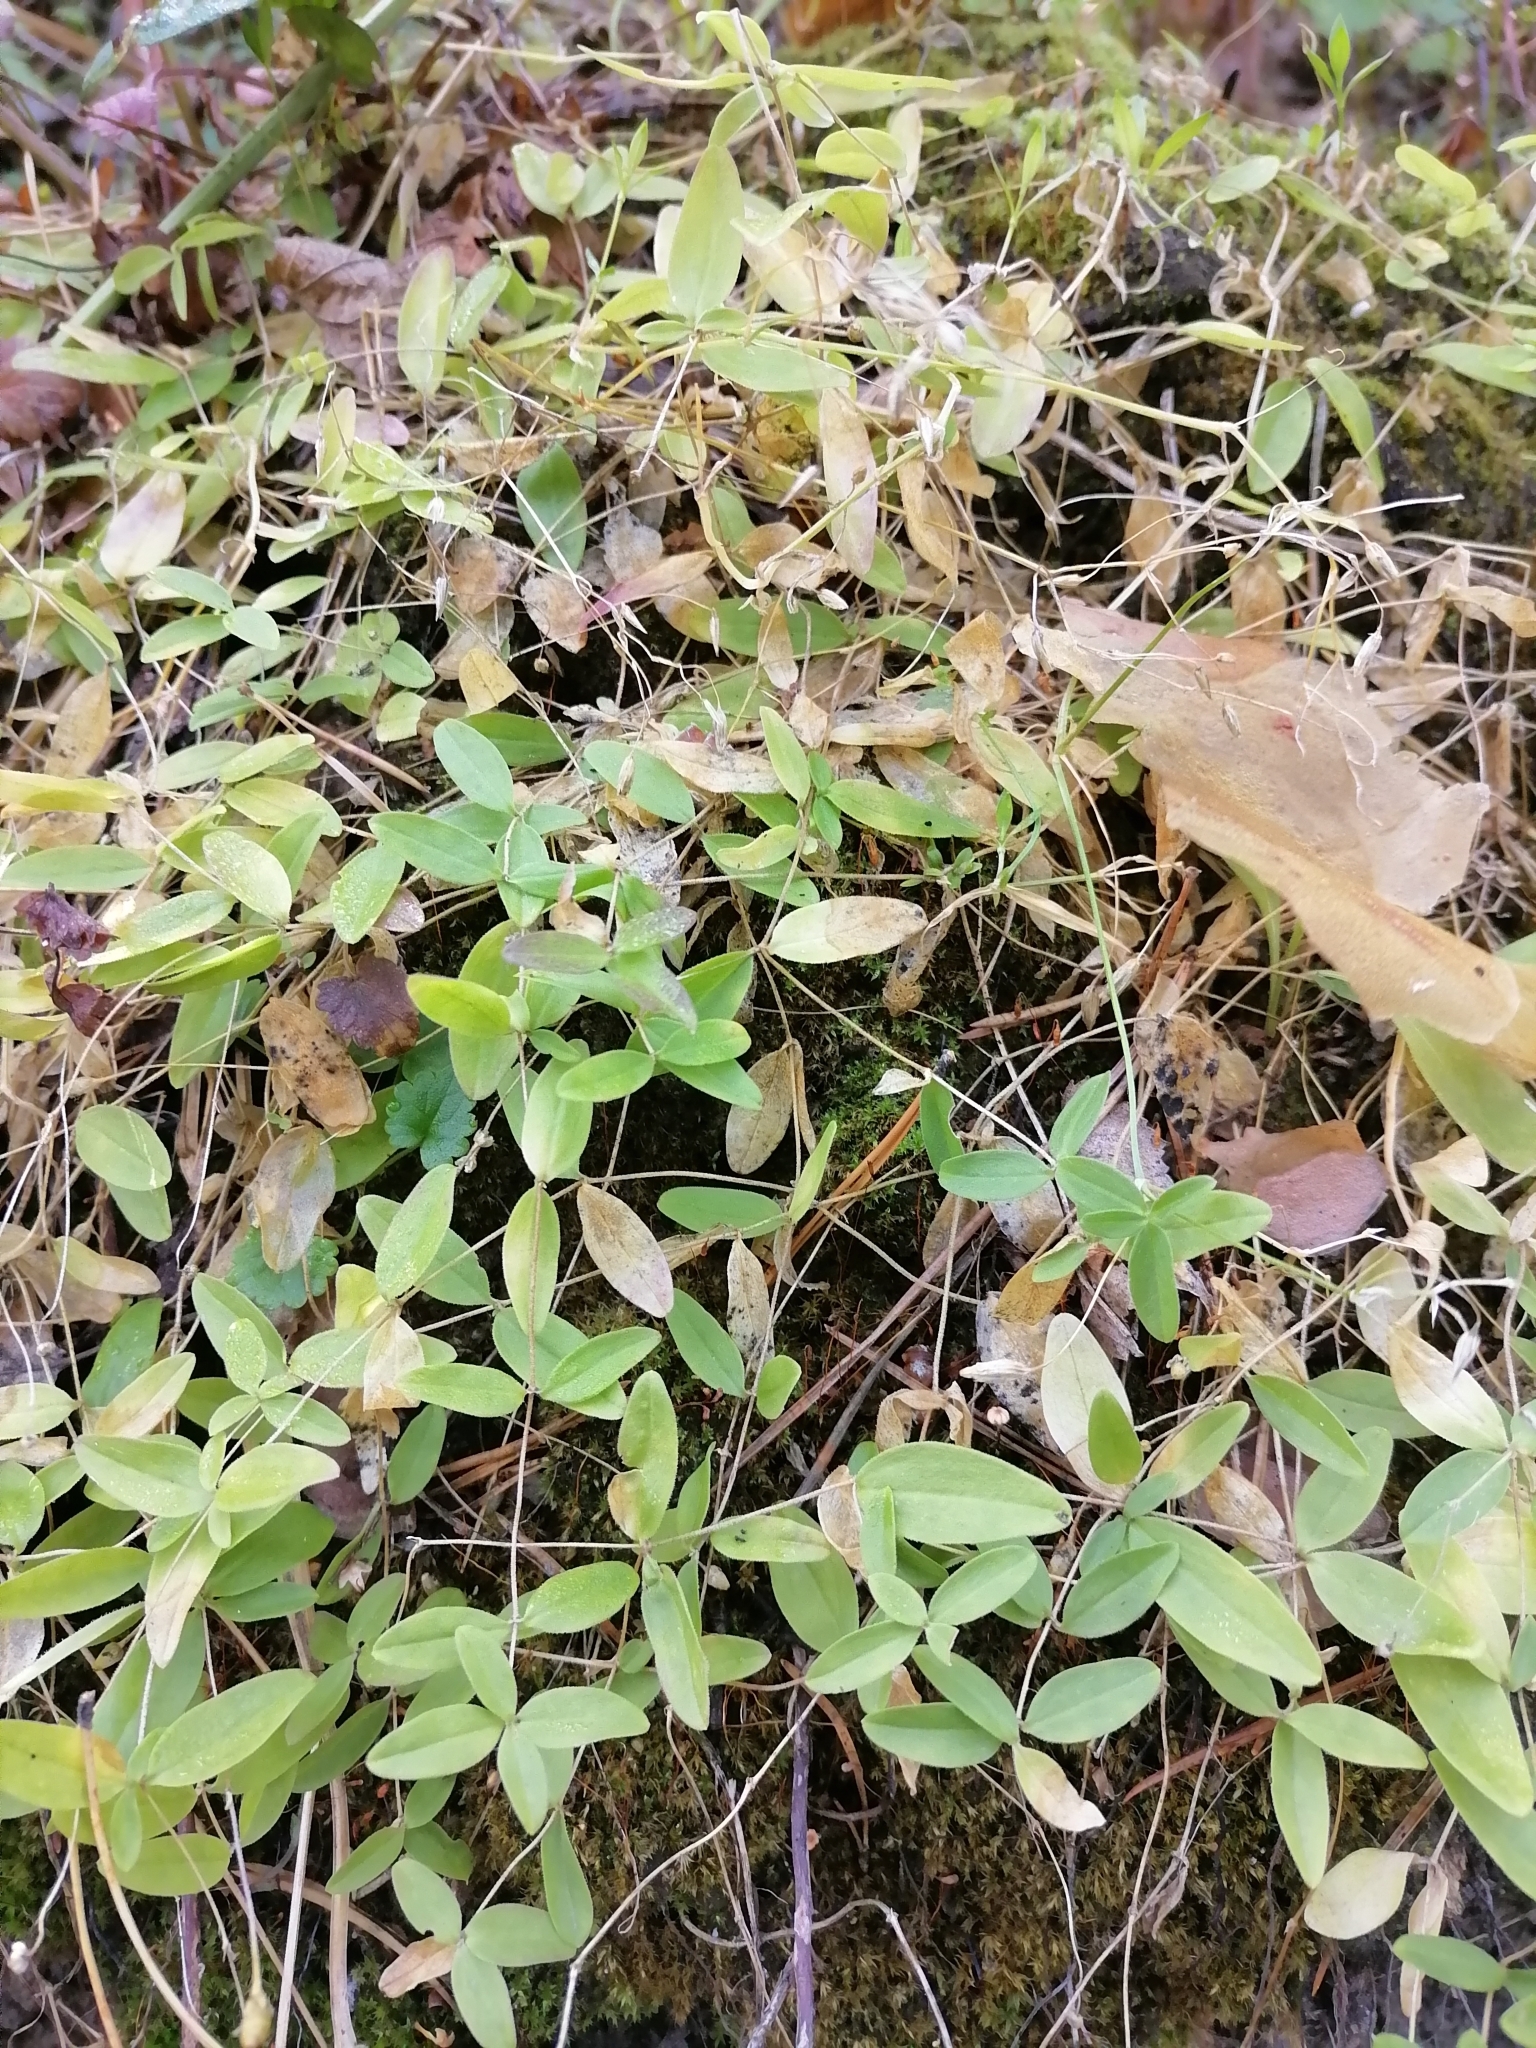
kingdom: Plantae
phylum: Tracheophyta
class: Magnoliopsida
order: Caryophyllales
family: Caryophyllaceae
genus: Moehringia
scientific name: Moehringia lateriflora
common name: Blunt-leaved sandwort
